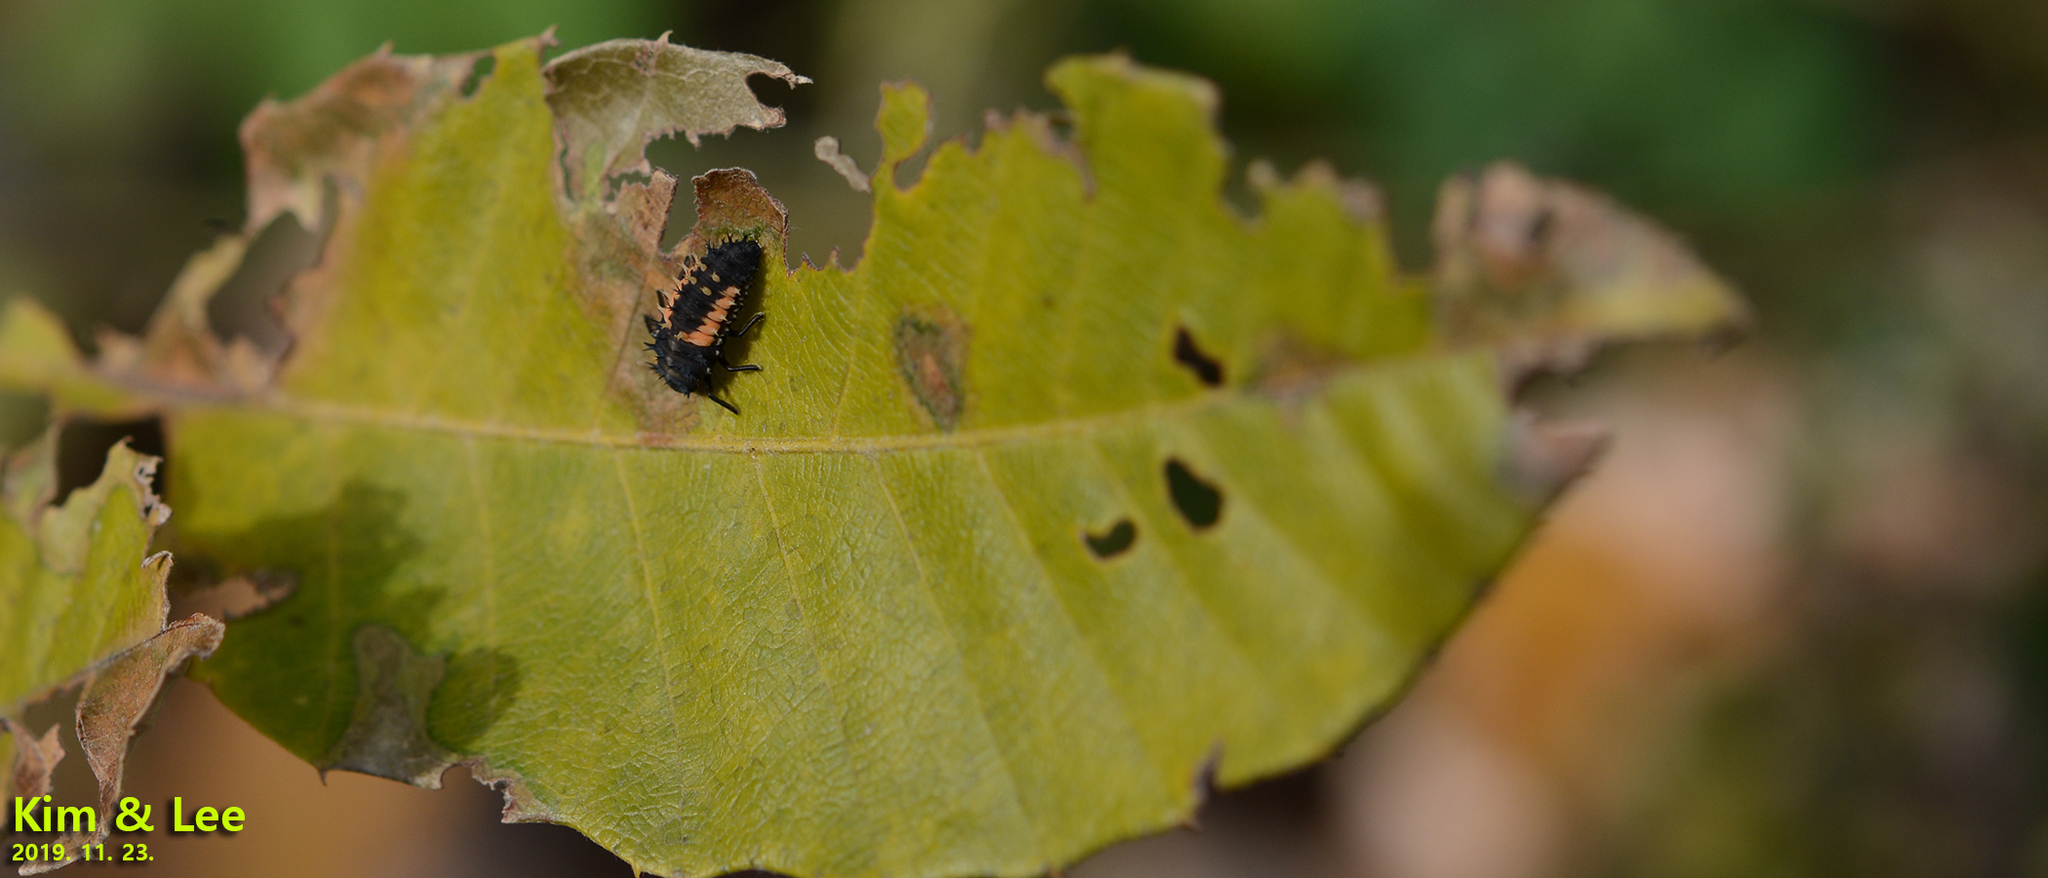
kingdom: Animalia
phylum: Arthropoda
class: Insecta
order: Coleoptera
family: Coccinellidae
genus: Harmonia
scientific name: Harmonia axyridis
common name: Harlequin ladybird
